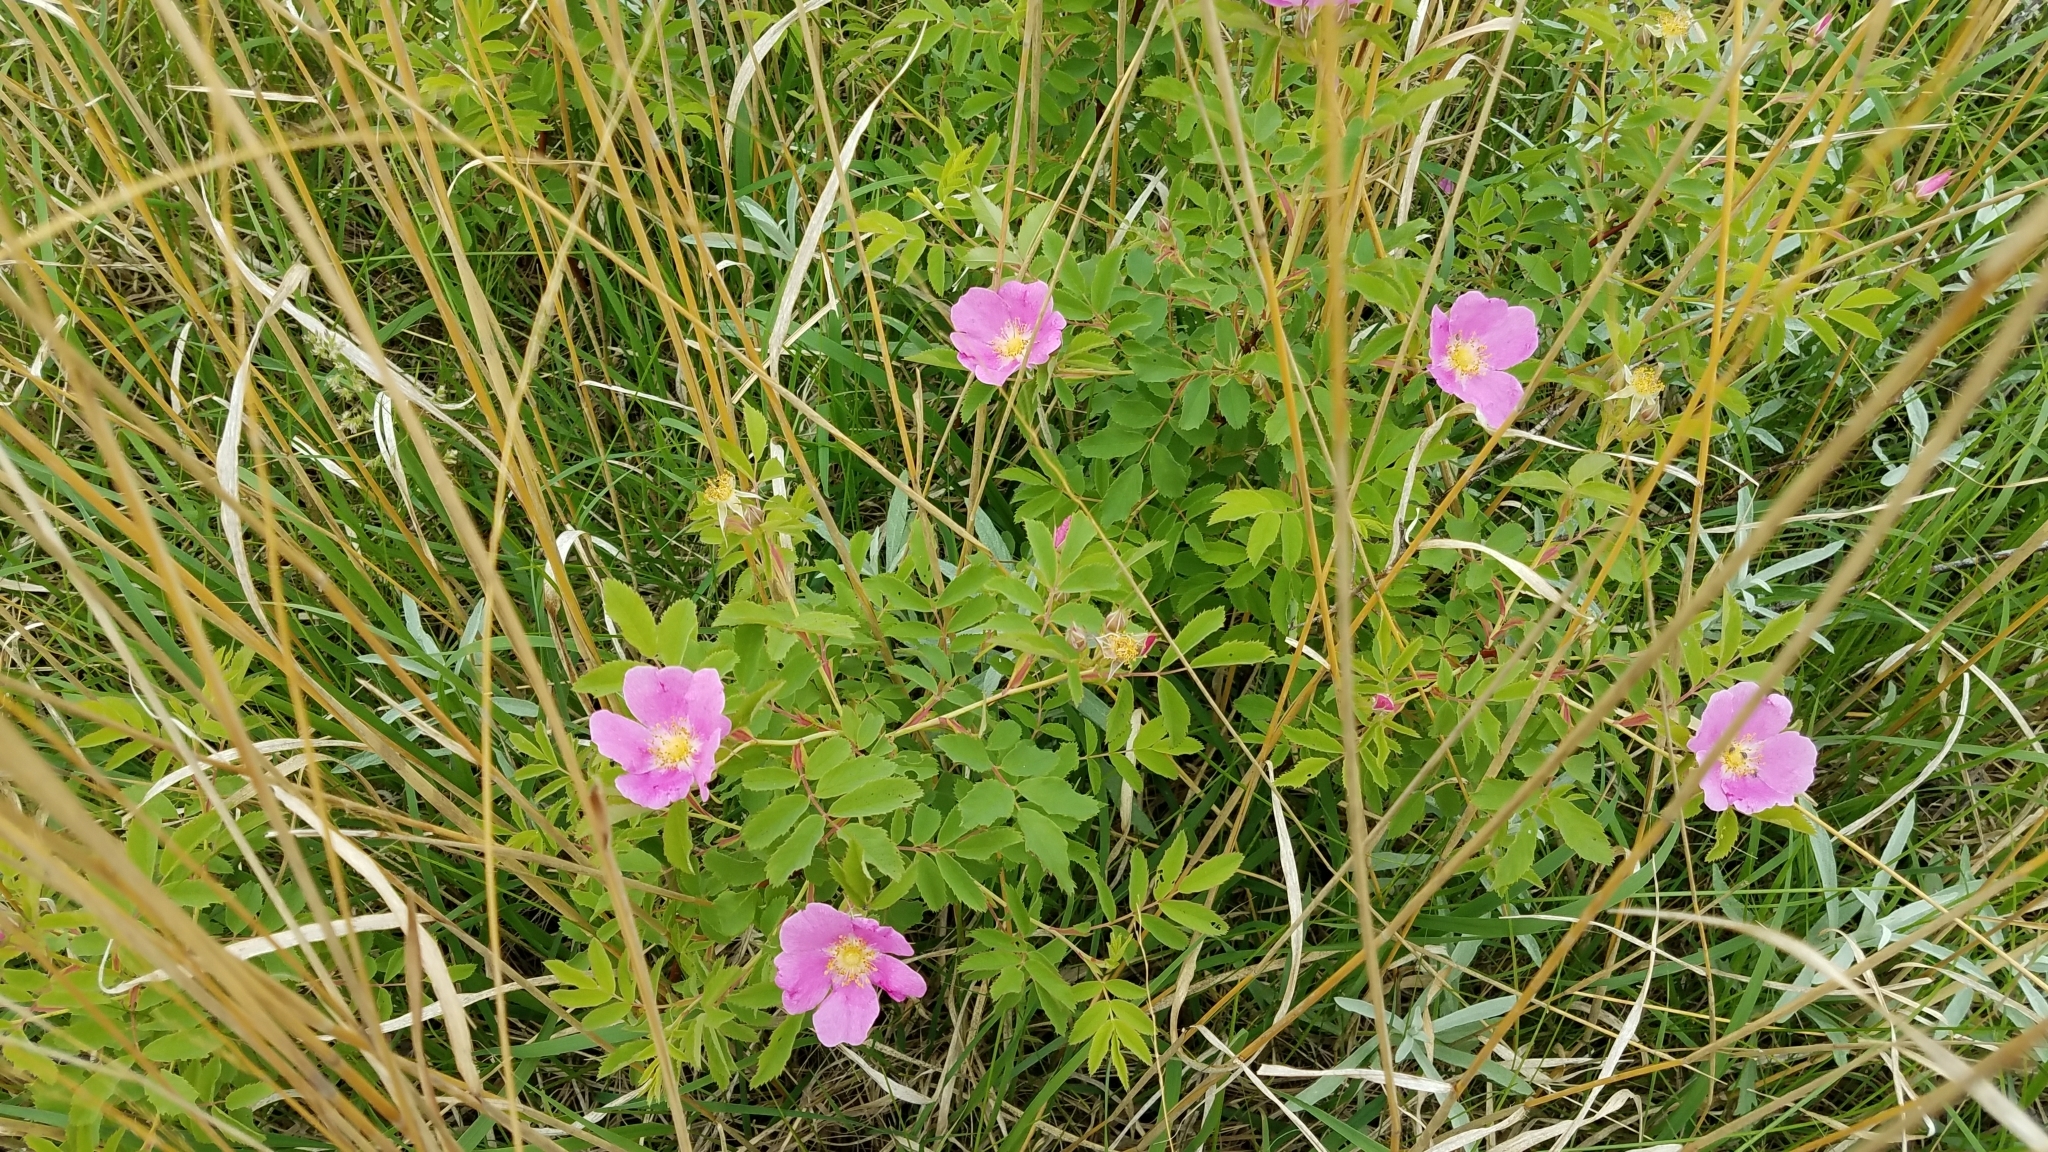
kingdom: Plantae
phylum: Tracheophyta
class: Magnoliopsida
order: Rosales
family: Rosaceae
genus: Rosa
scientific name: Rosa arkansana
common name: Prairie rose
